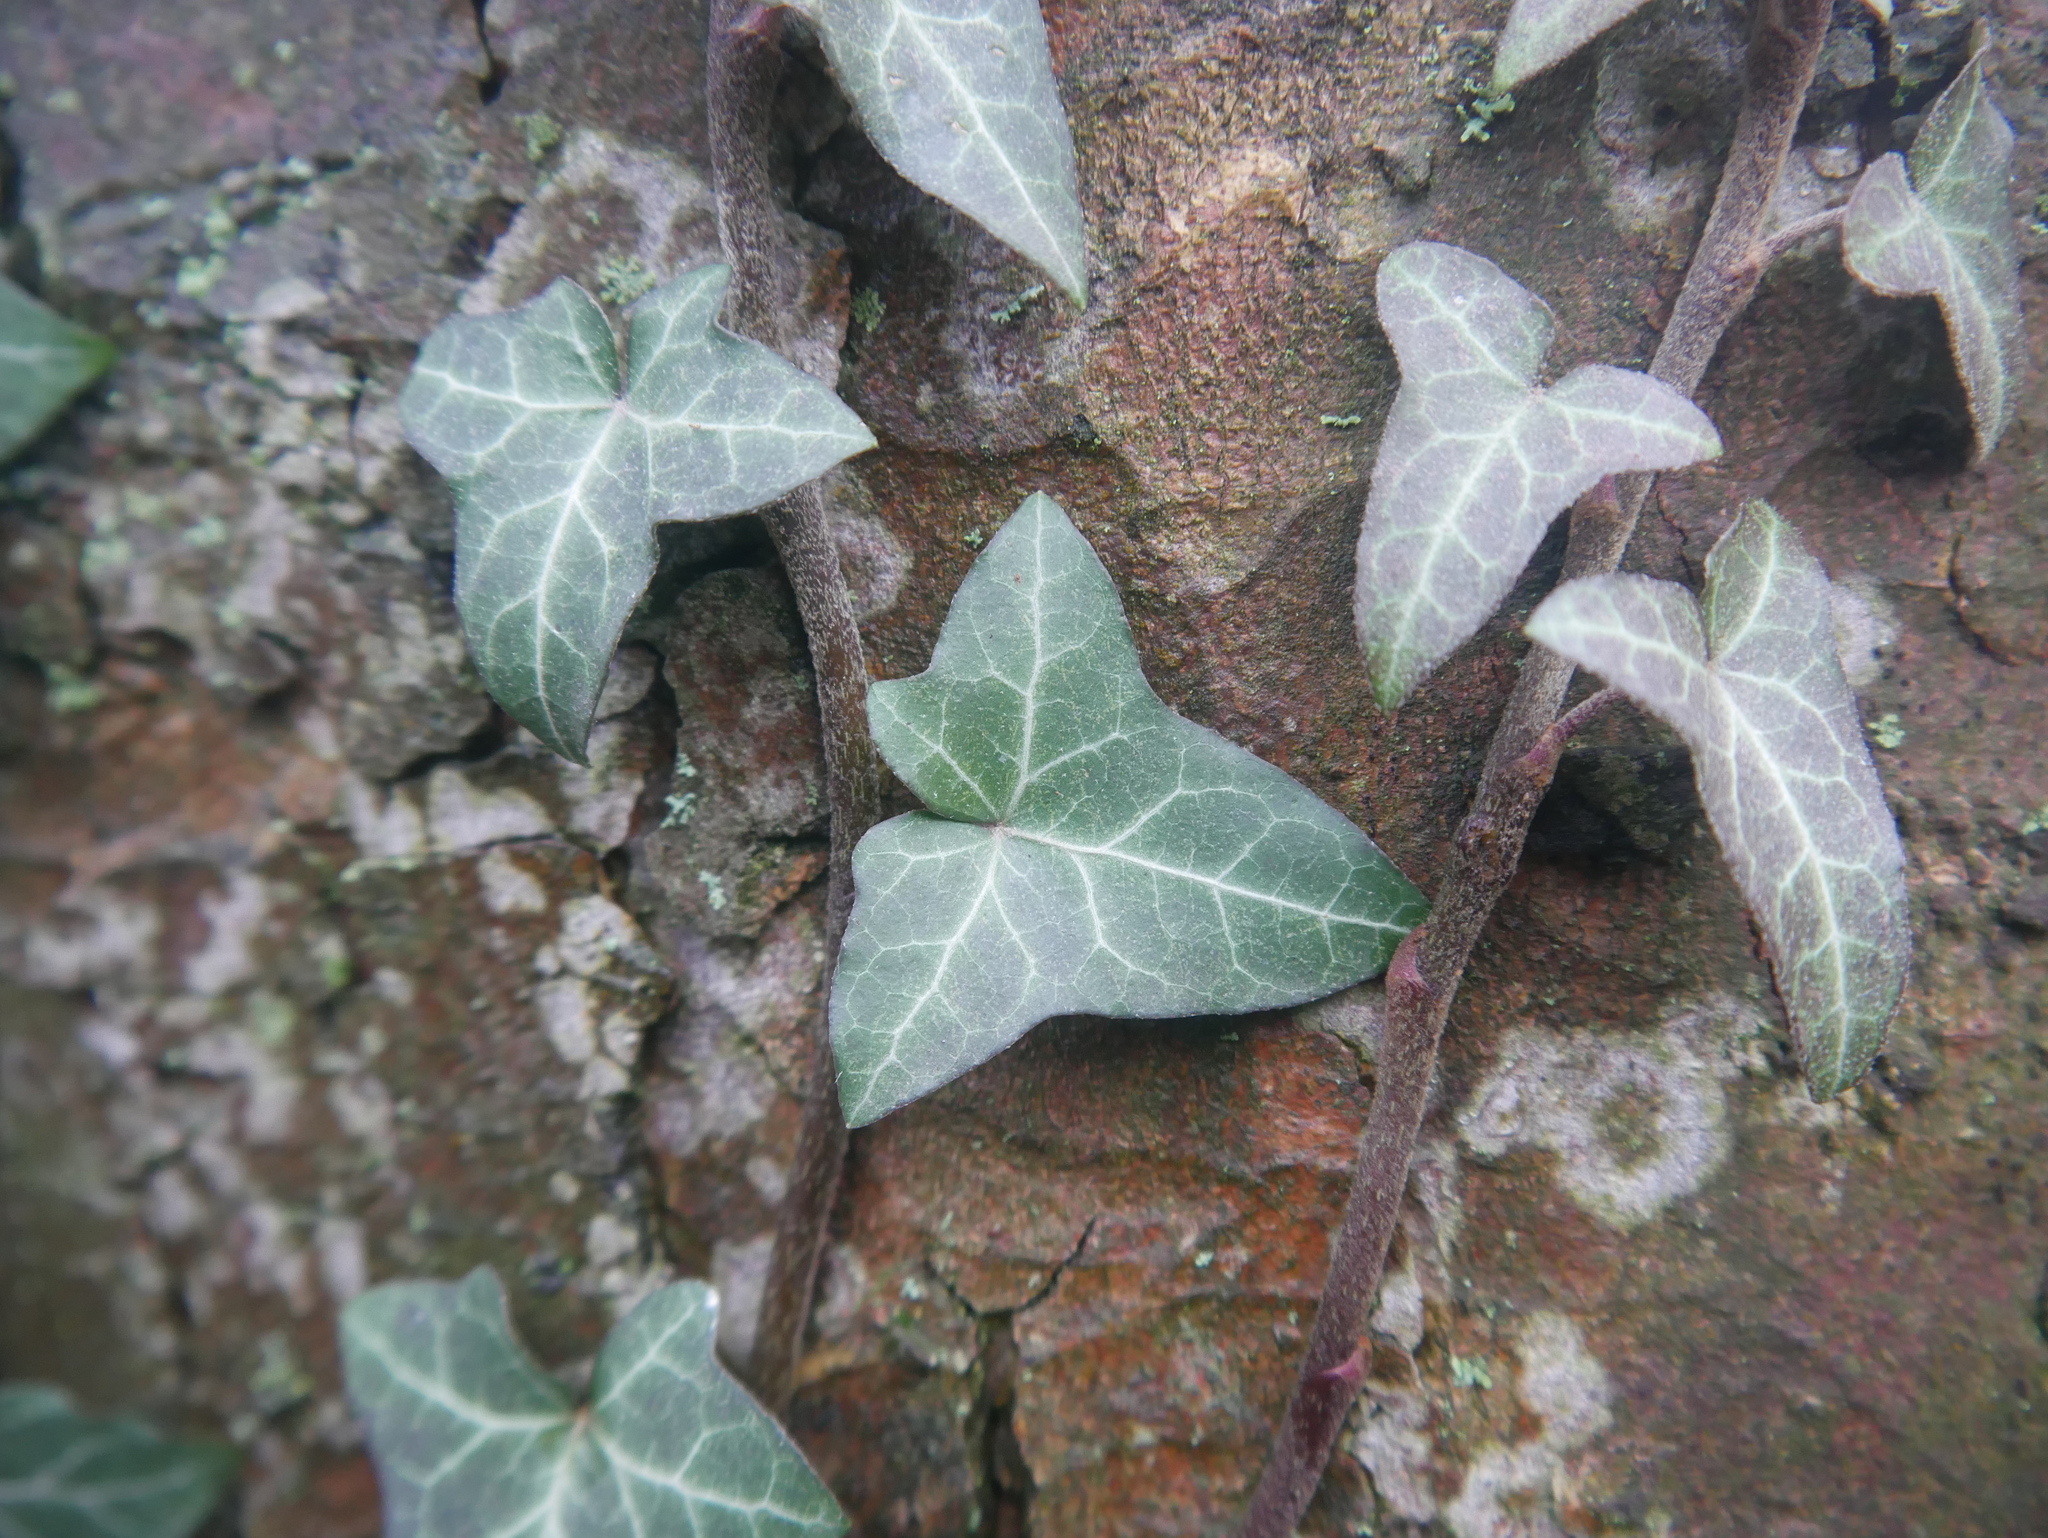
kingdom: Plantae
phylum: Tracheophyta
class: Magnoliopsida
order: Apiales
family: Araliaceae
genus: Hedera
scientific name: Hedera helix
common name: Ivy
